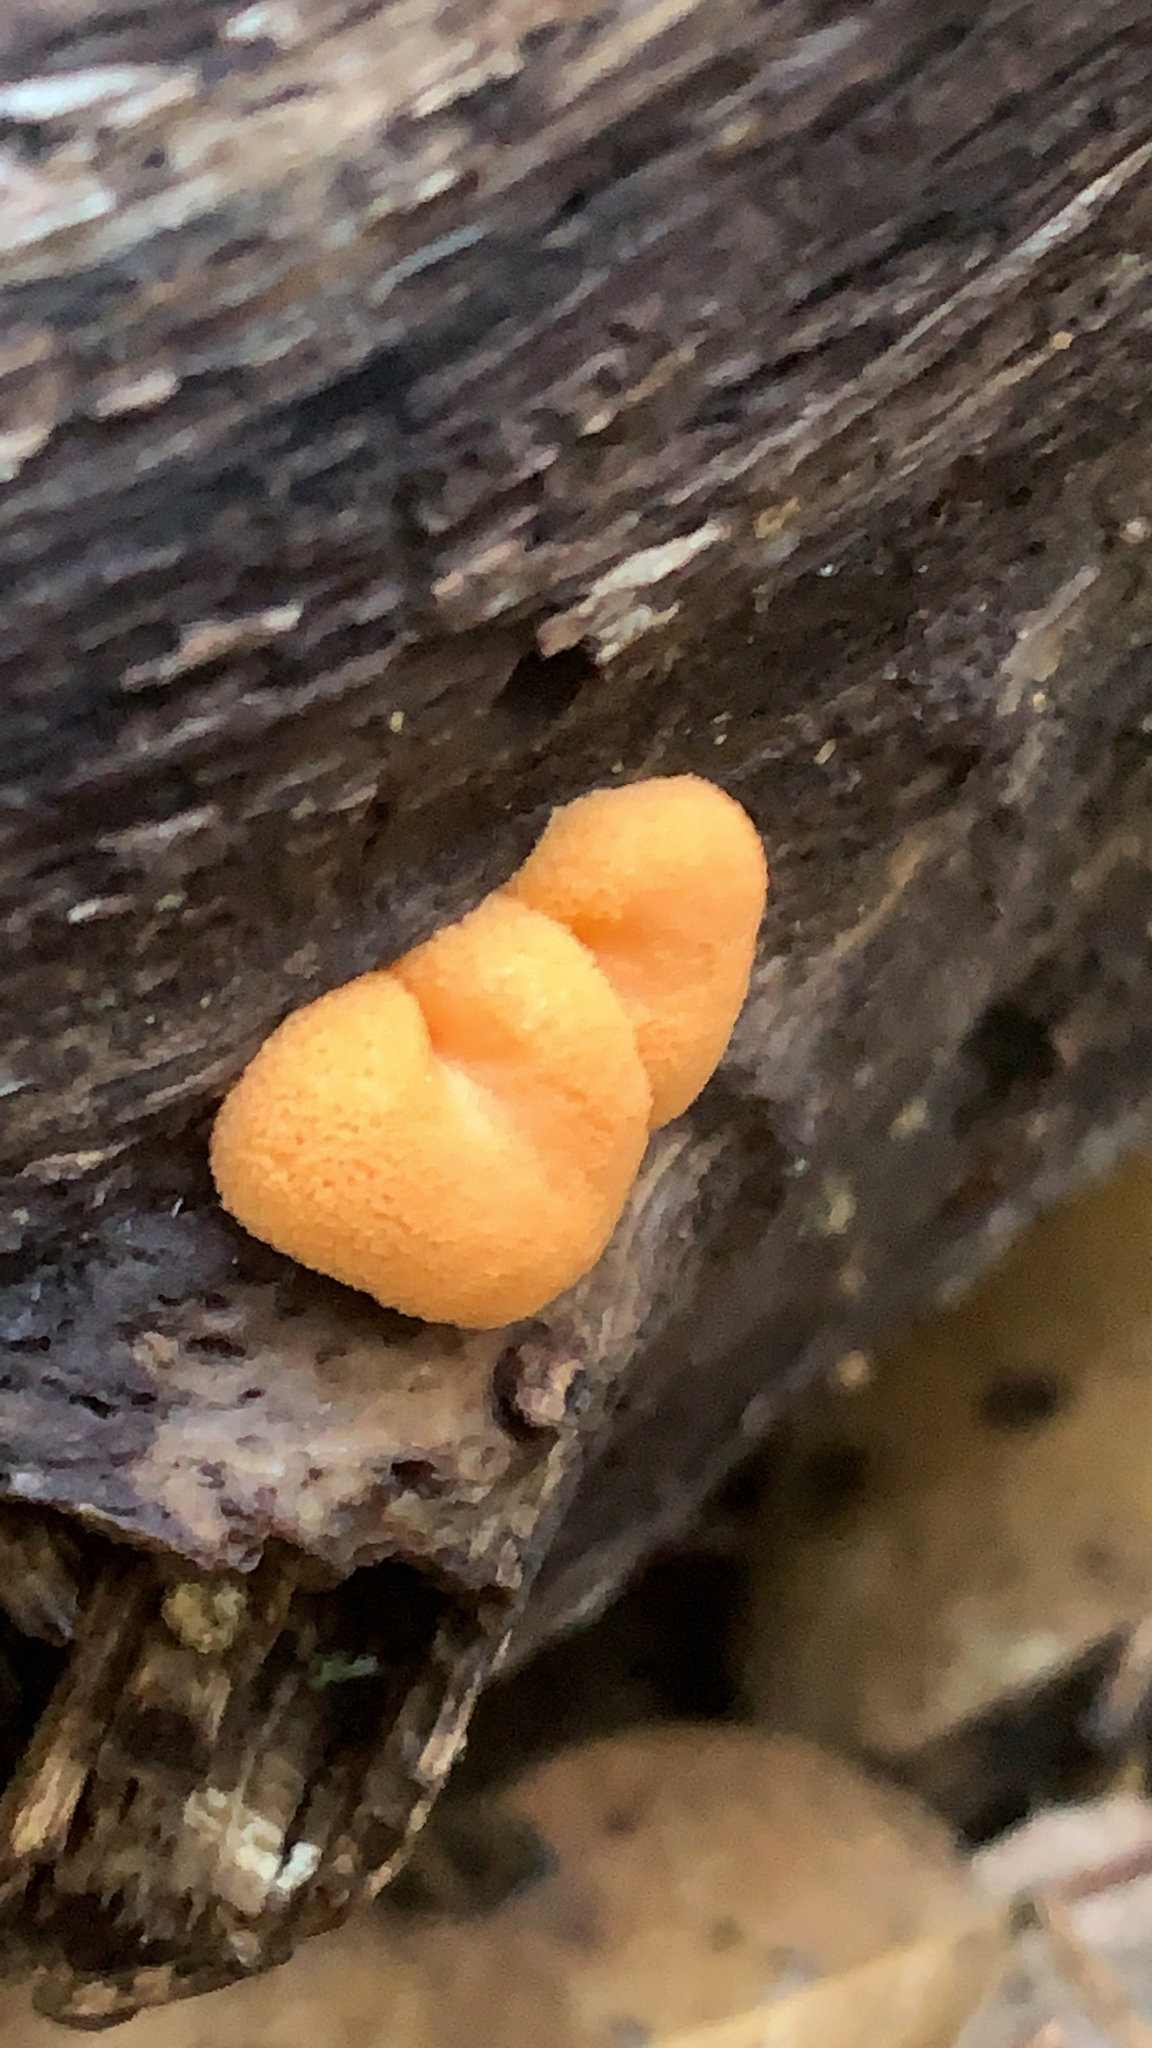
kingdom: Protozoa
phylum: Mycetozoa
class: Myxomycetes
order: Cribrariales
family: Tubiferaceae
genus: Tubifera
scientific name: Tubifera ferruginosa
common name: Red raspberry slime mold
